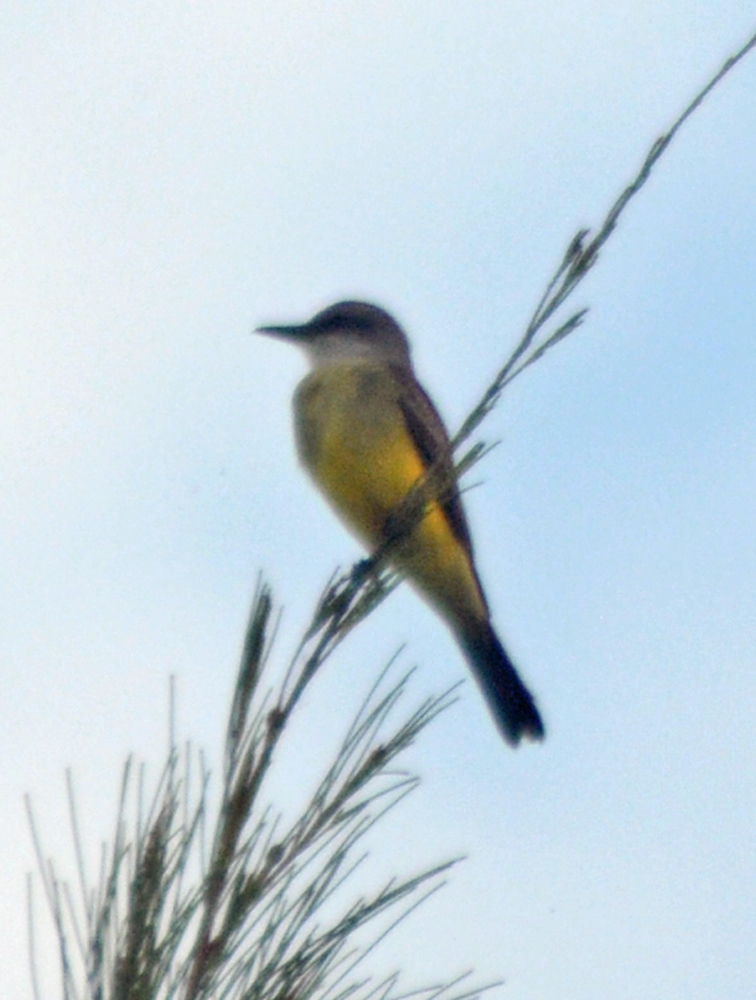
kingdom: Animalia
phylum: Chordata
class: Aves
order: Passeriformes
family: Tyrannidae
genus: Tyrannus
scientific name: Tyrannus melancholicus
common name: Tropical kingbird
